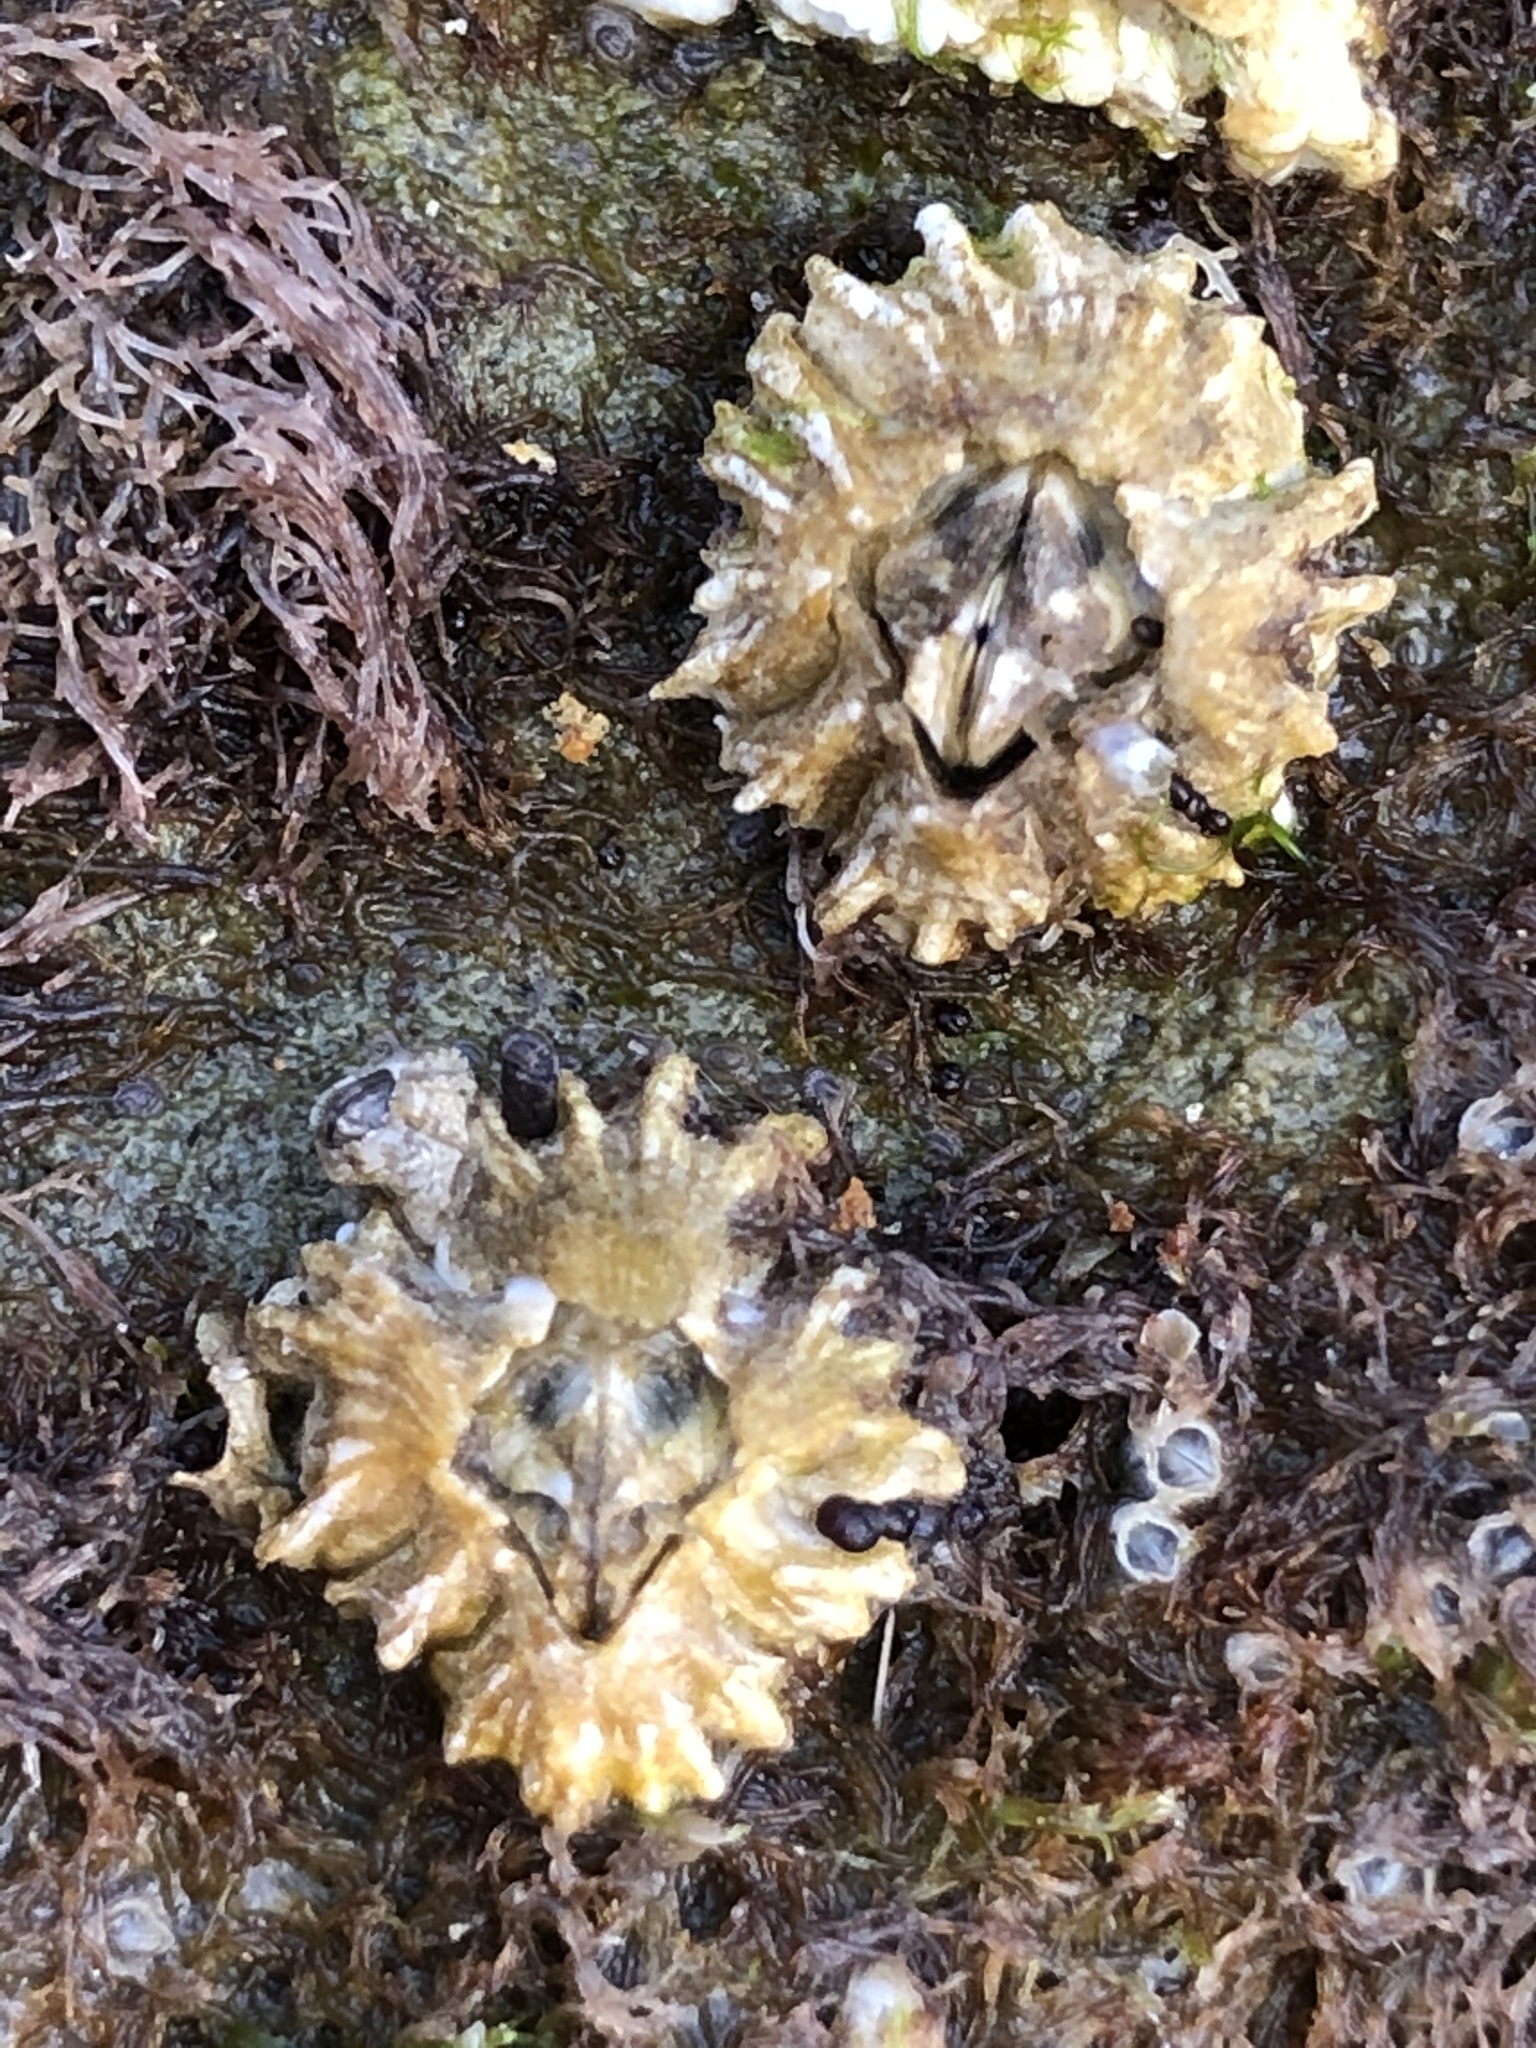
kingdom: Animalia
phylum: Arthropoda
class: Maxillopoda
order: Sessilia
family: Balanidae
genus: Balanus
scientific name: Balanus glandula
